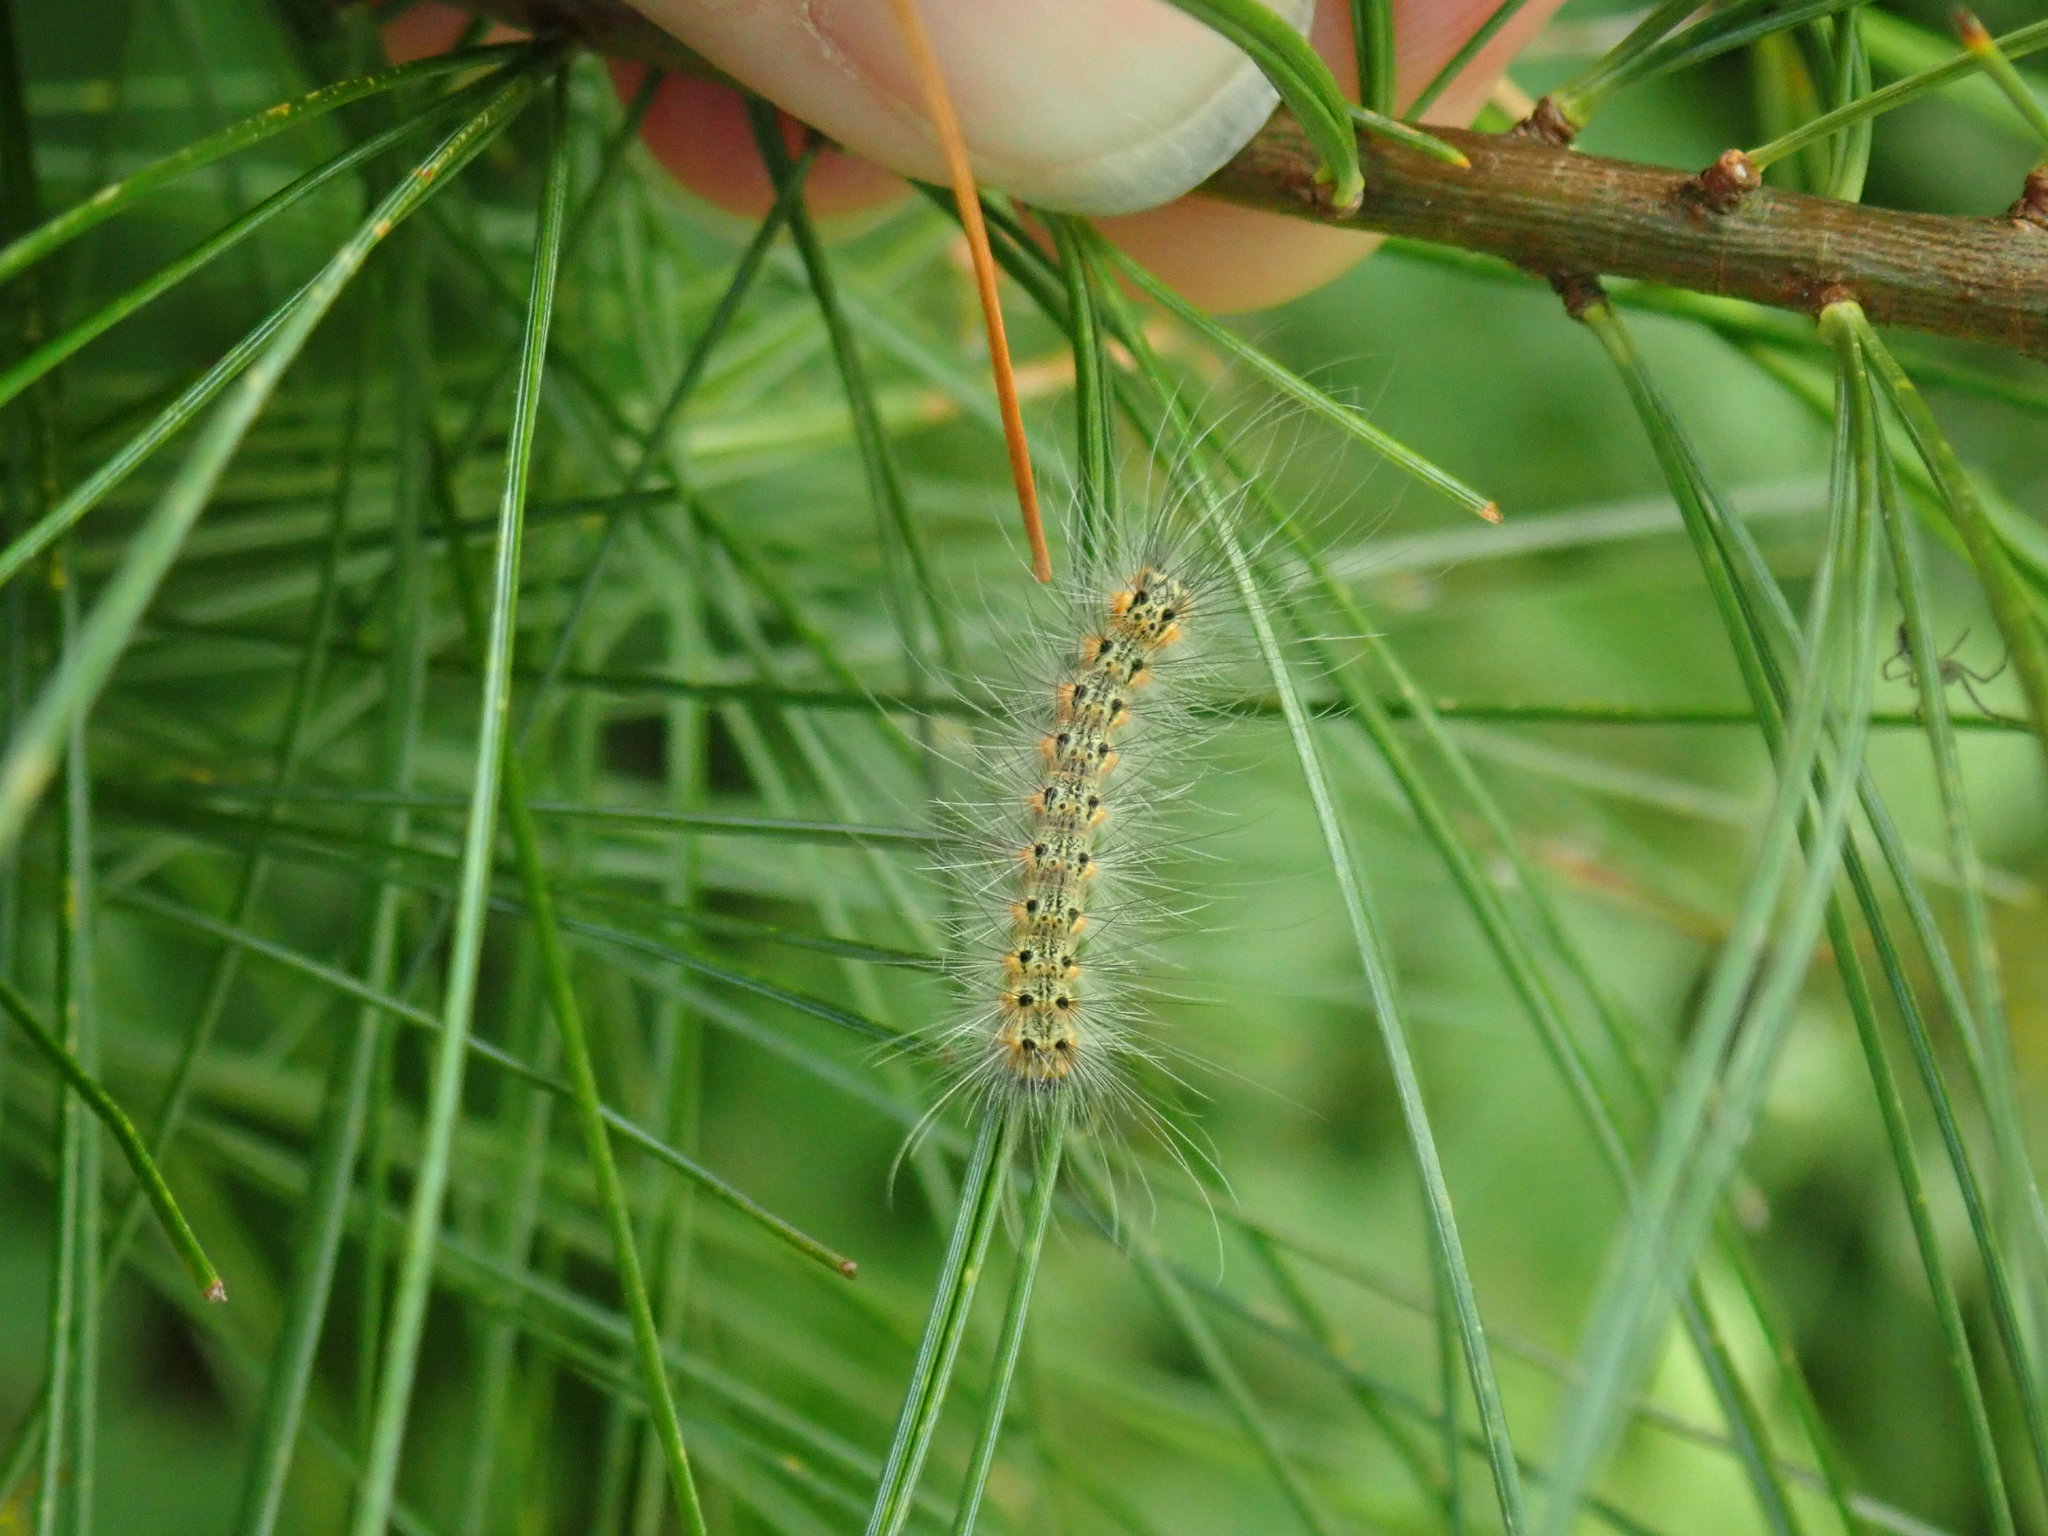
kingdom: Animalia
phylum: Arthropoda
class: Insecta
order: Lepidoptera
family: Erebidae
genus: Hyphantria
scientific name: Hyphantria cunea
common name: American white moth
